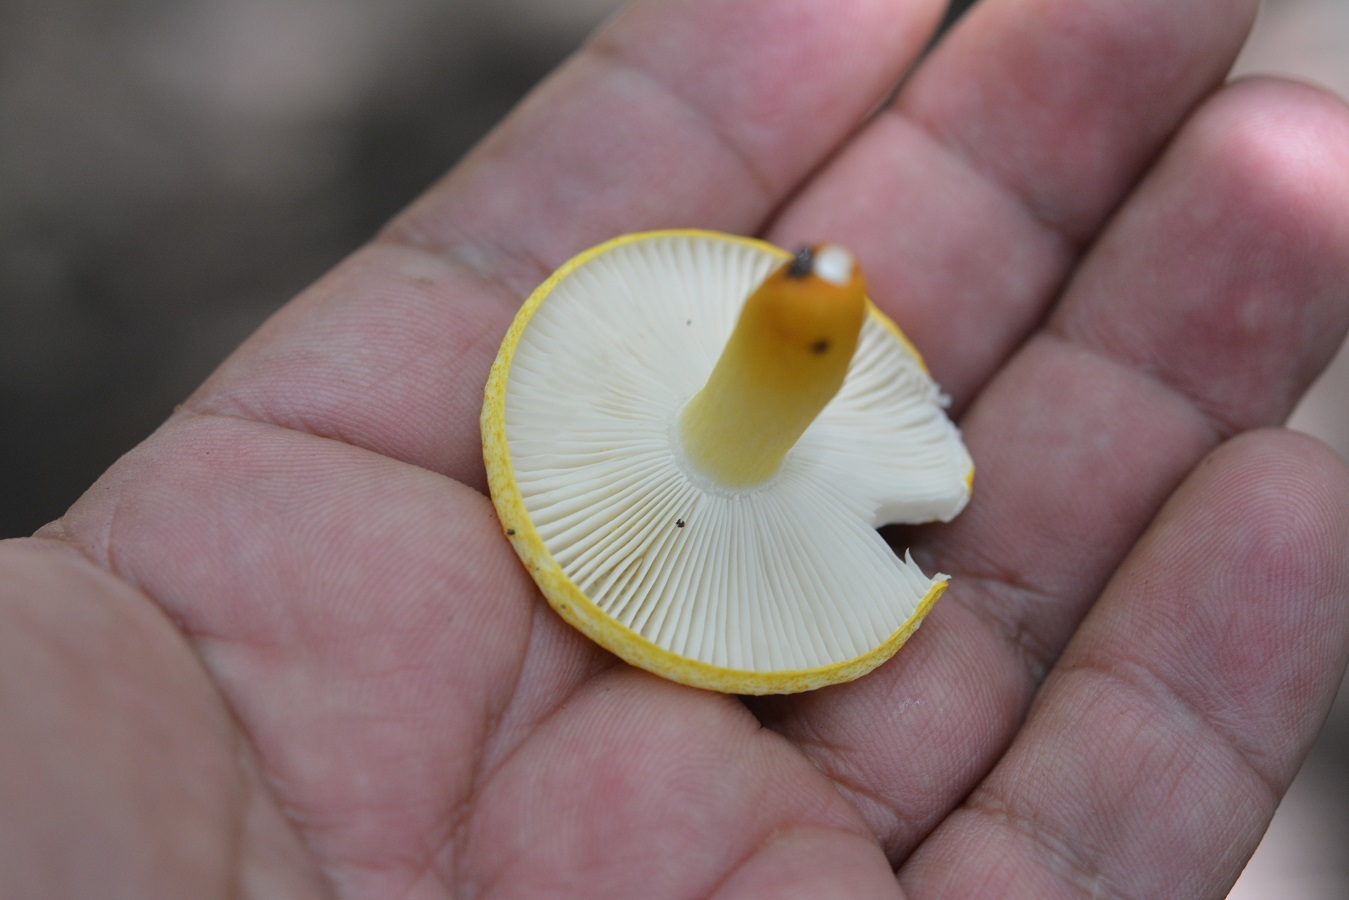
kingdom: Fungi
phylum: Basidiomycota
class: Agaricomycetes
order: Russulales
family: Russulaceae
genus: Russula
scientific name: Russula risigallina
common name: Golden brittlegill
